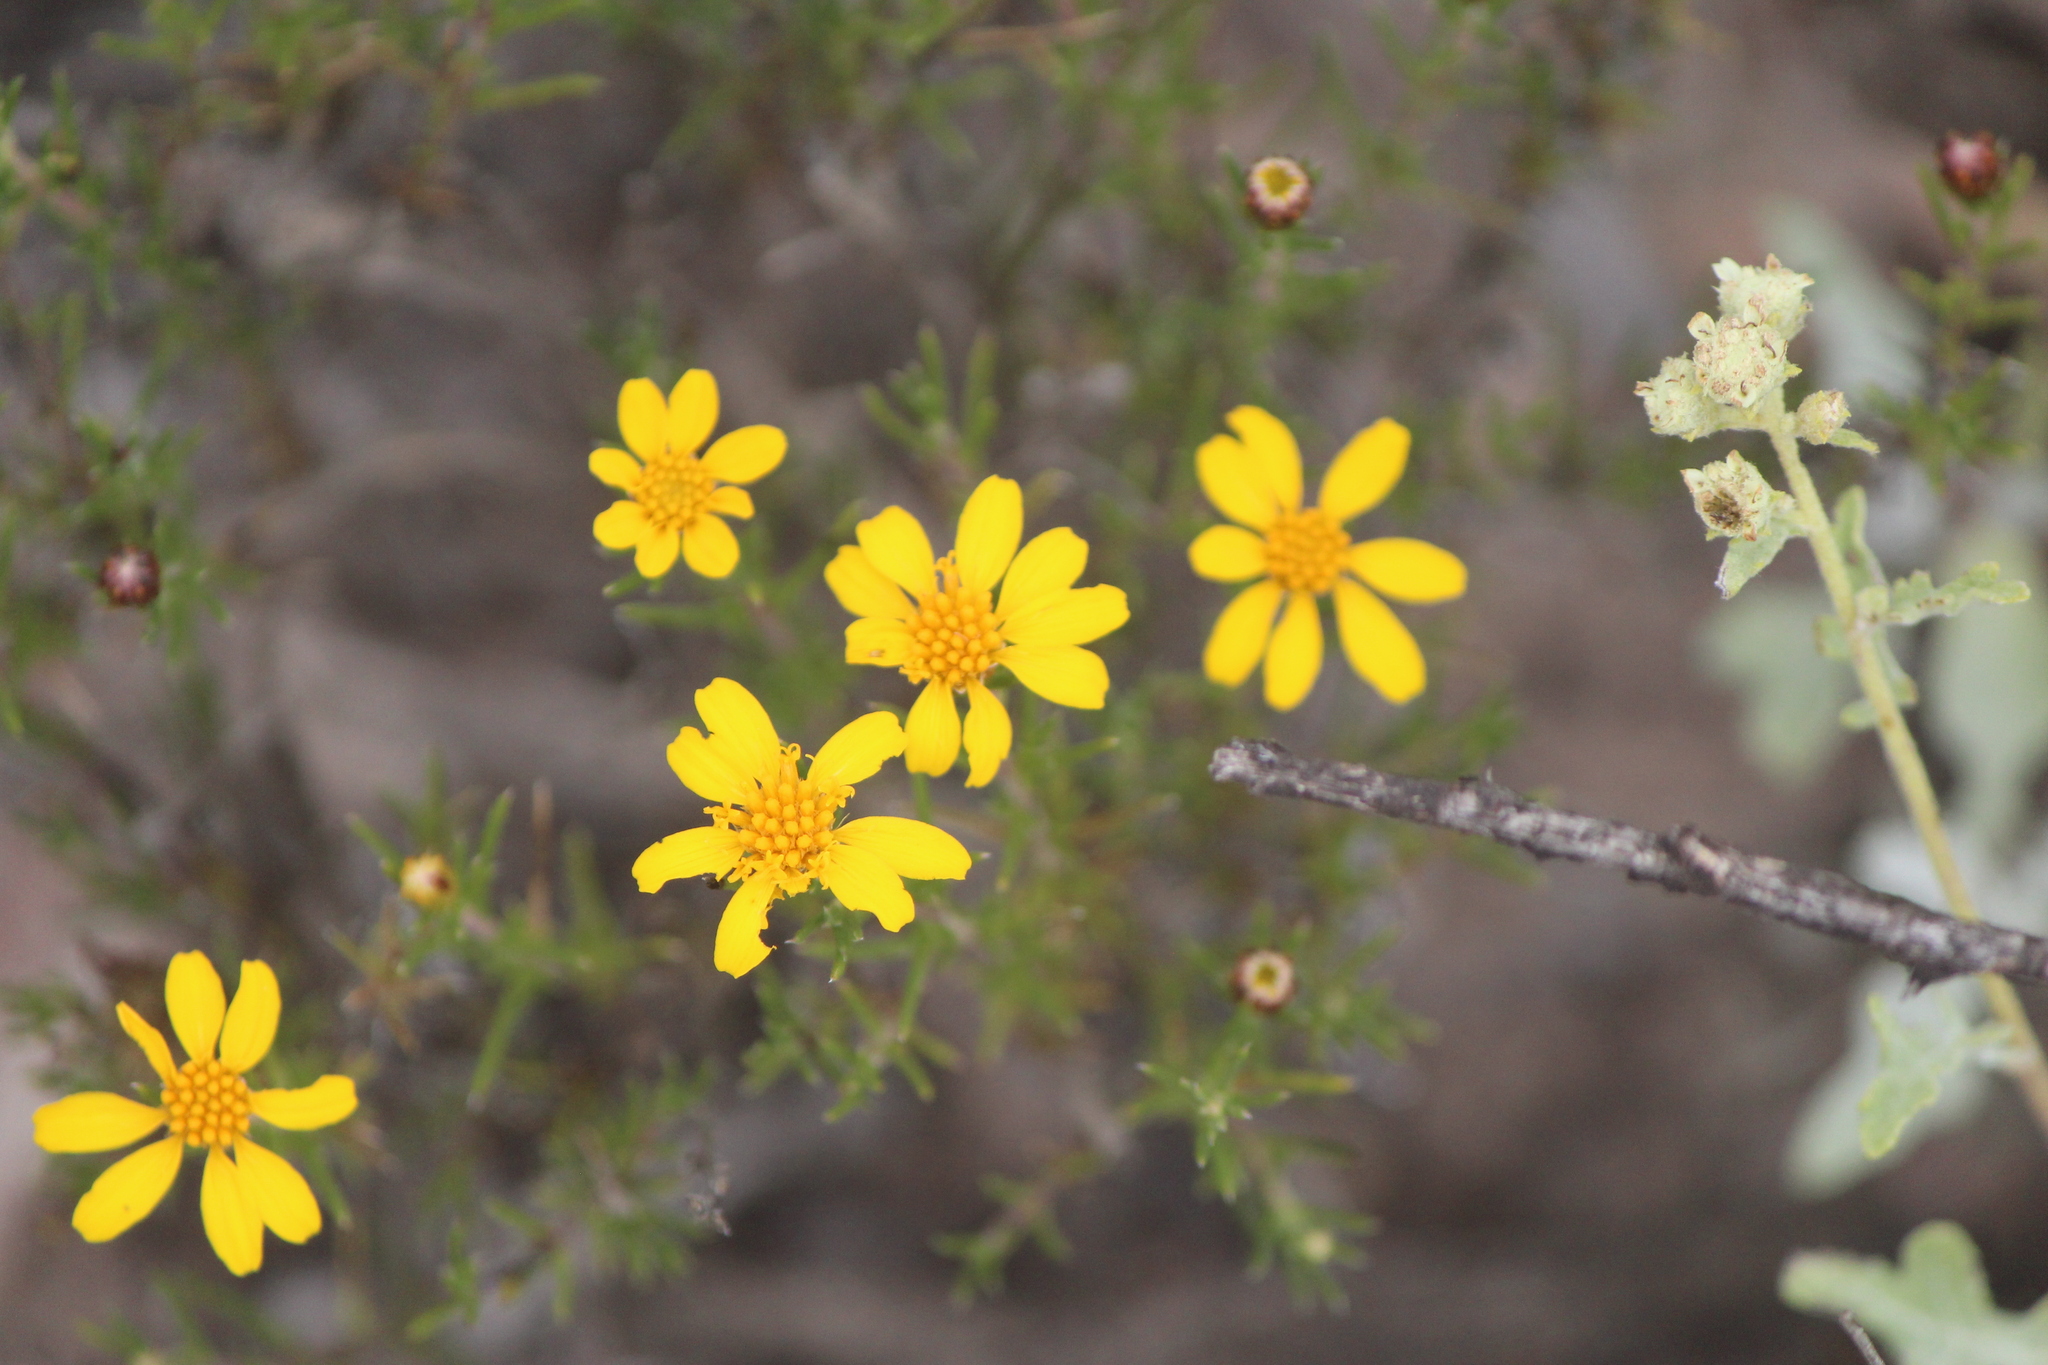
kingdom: Plantae
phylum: Tracheophyta
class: Magnoliopsida
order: Asterales
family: Asteraceae
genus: Thymophylla
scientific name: Thymophylla acerosa
